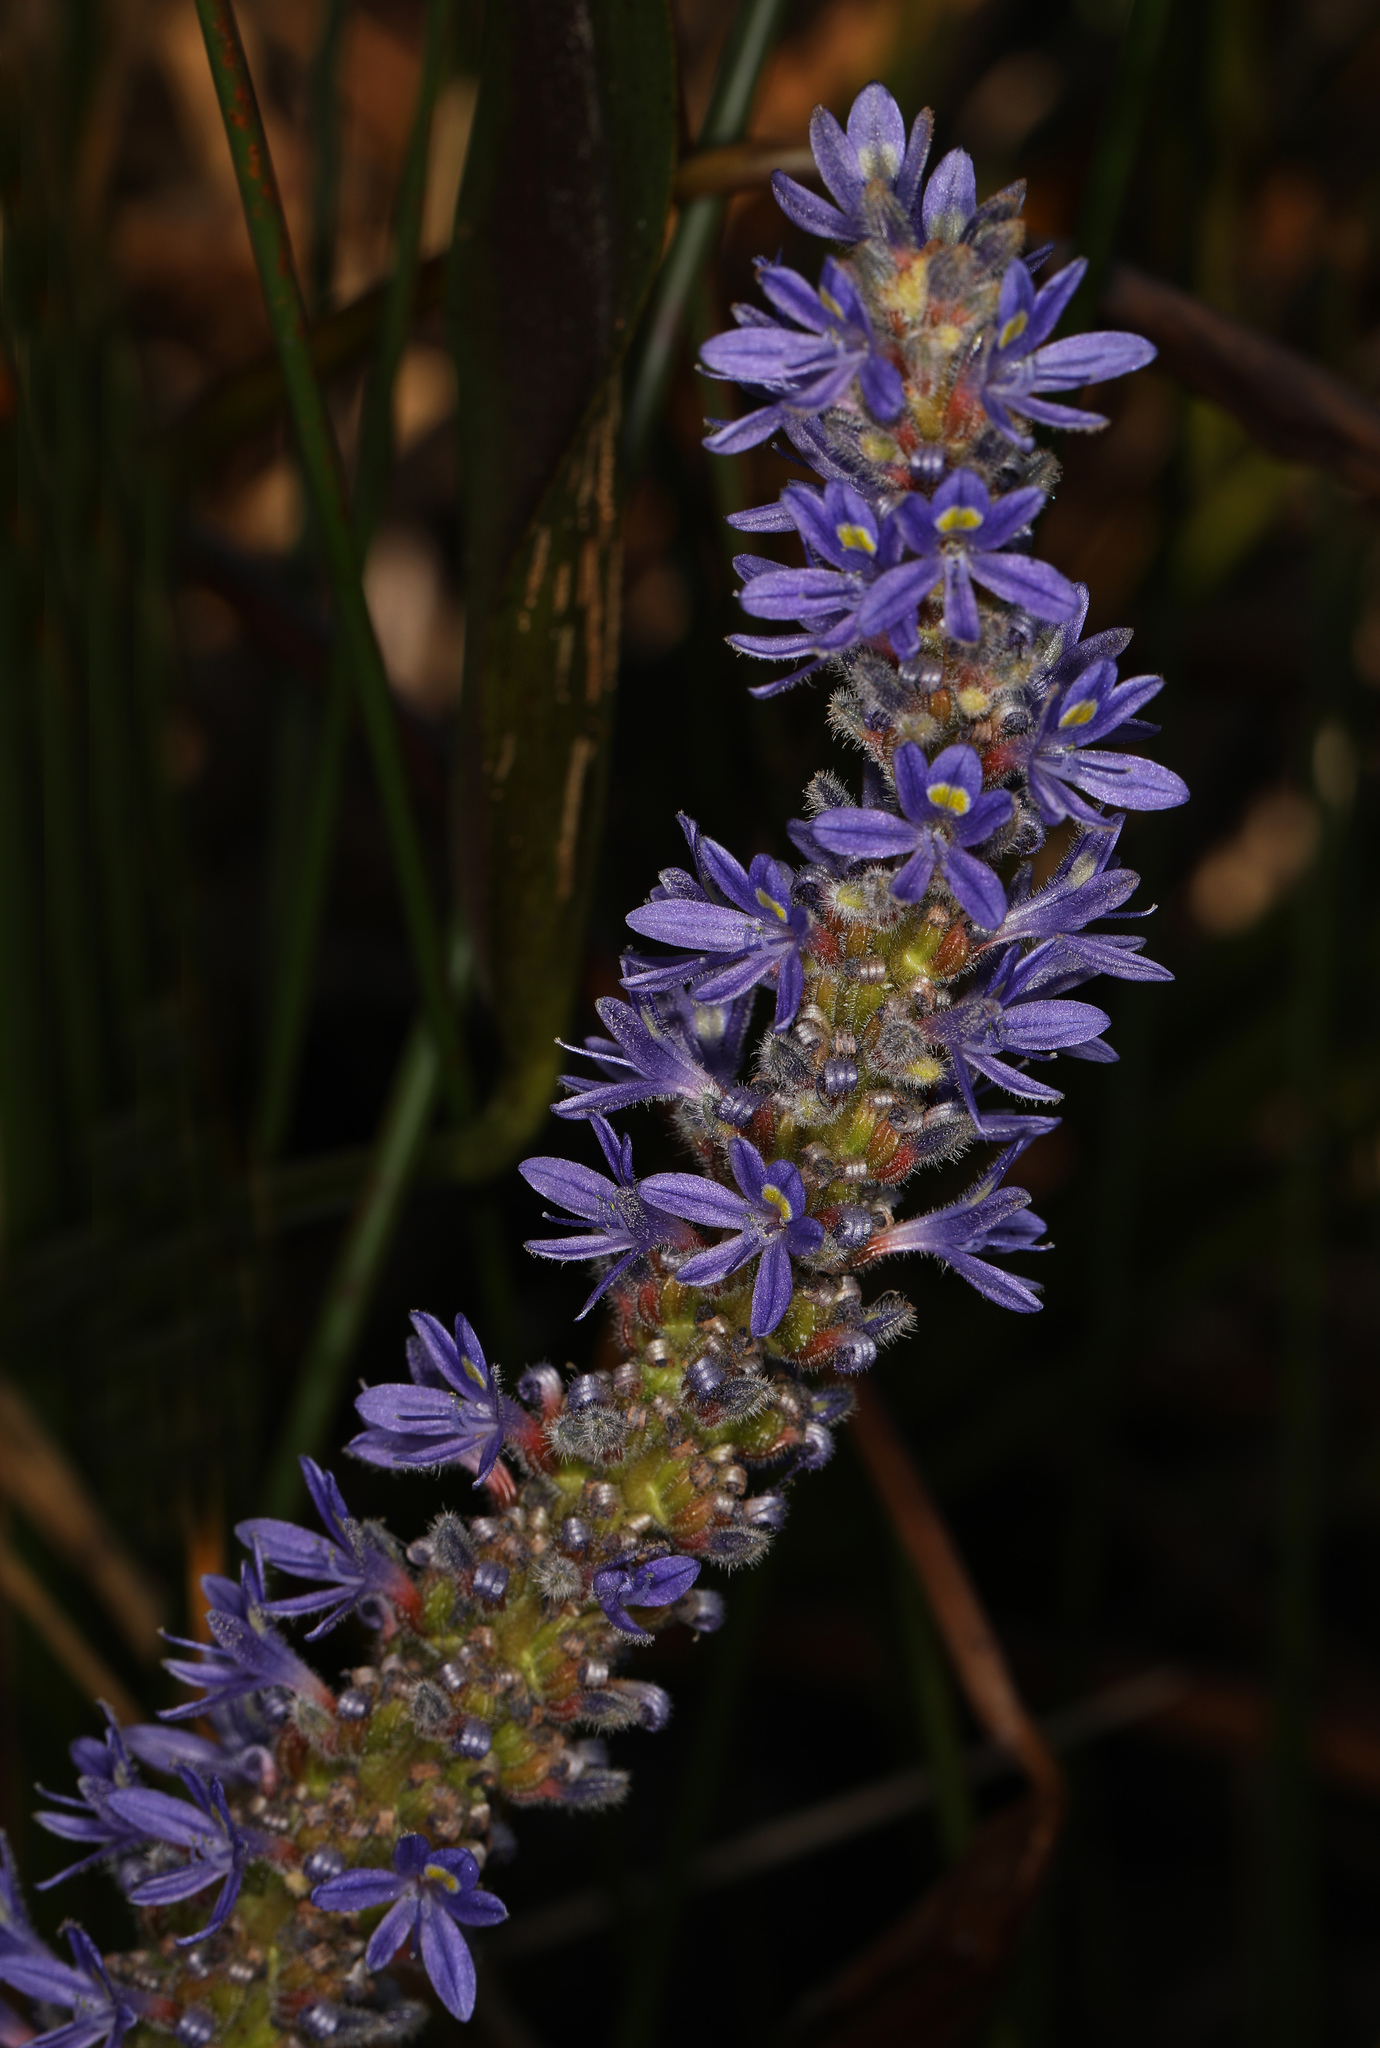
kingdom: Plantae
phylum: Tracheophyta
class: Liliopsida
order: Commelinales
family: Pontederiaceae
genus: Pontederia
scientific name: Pontederia cordata
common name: Pickerelweed
